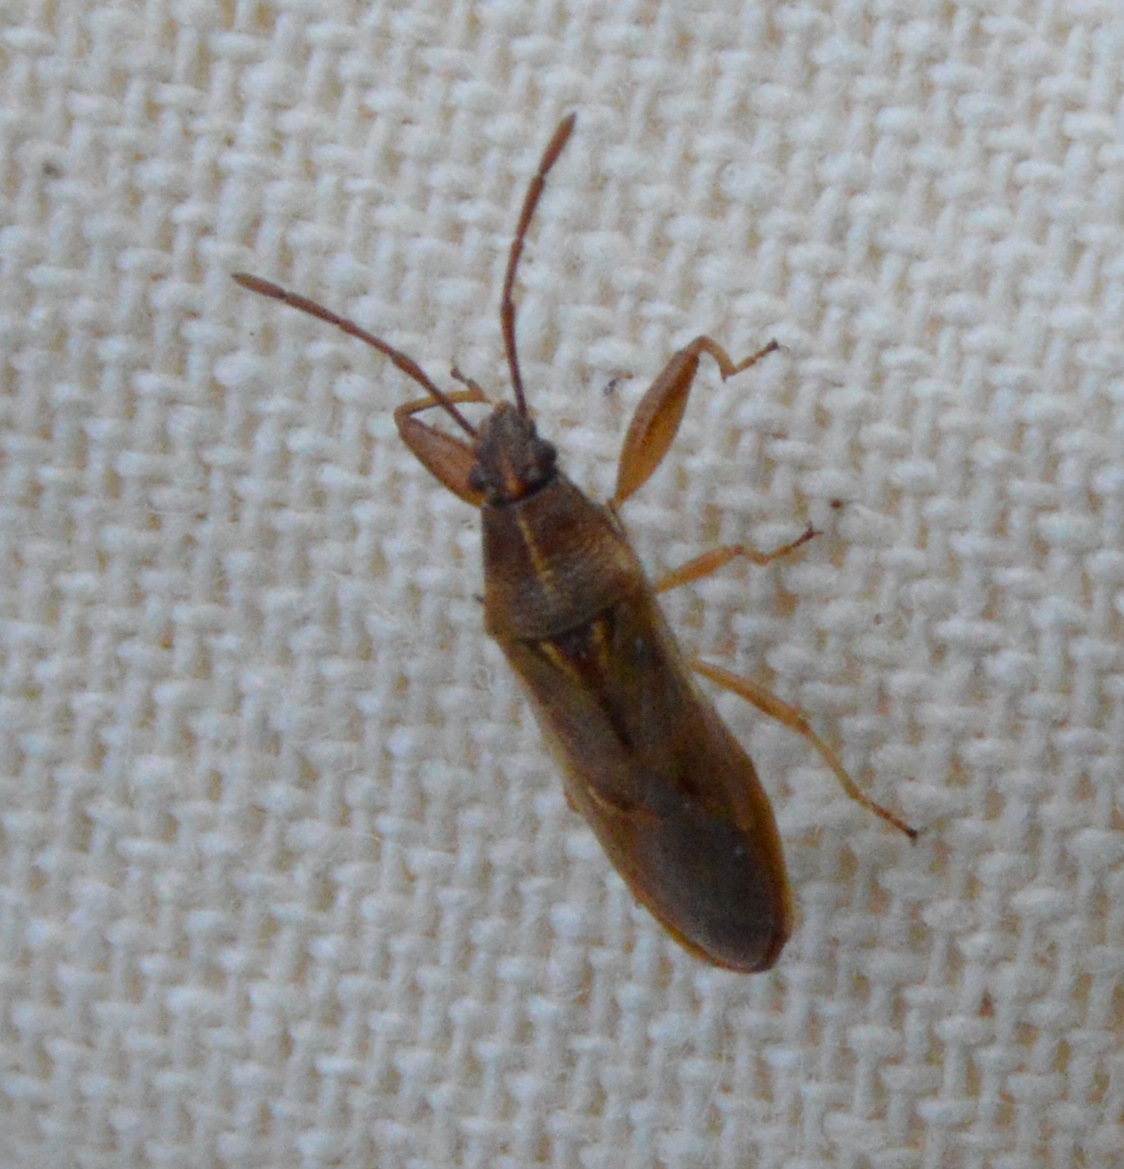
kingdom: Animalia
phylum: Arthropoda
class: Insecta
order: Hemiptera
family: Pachygronthidae
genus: Oedancala
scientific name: Oedancala crassimana
